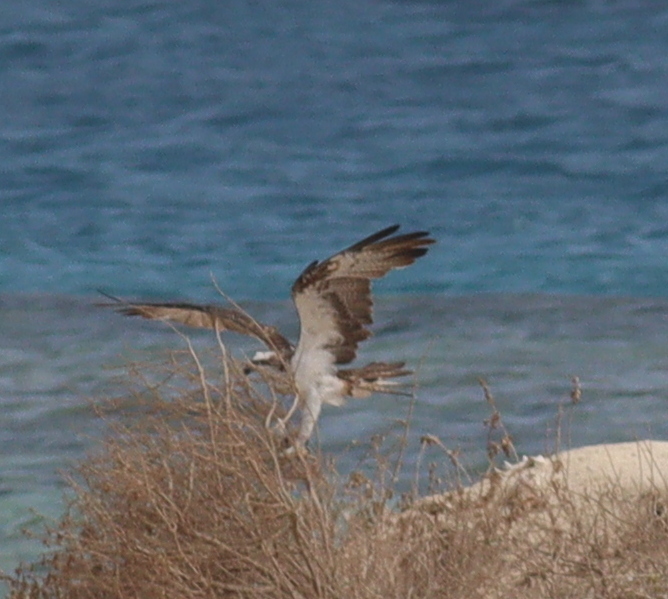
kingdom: Animalia
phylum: Chordata
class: Aves
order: Accipitriformes
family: Pandionidae
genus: Pandion
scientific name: Pandion haliaetus
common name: Osprey
